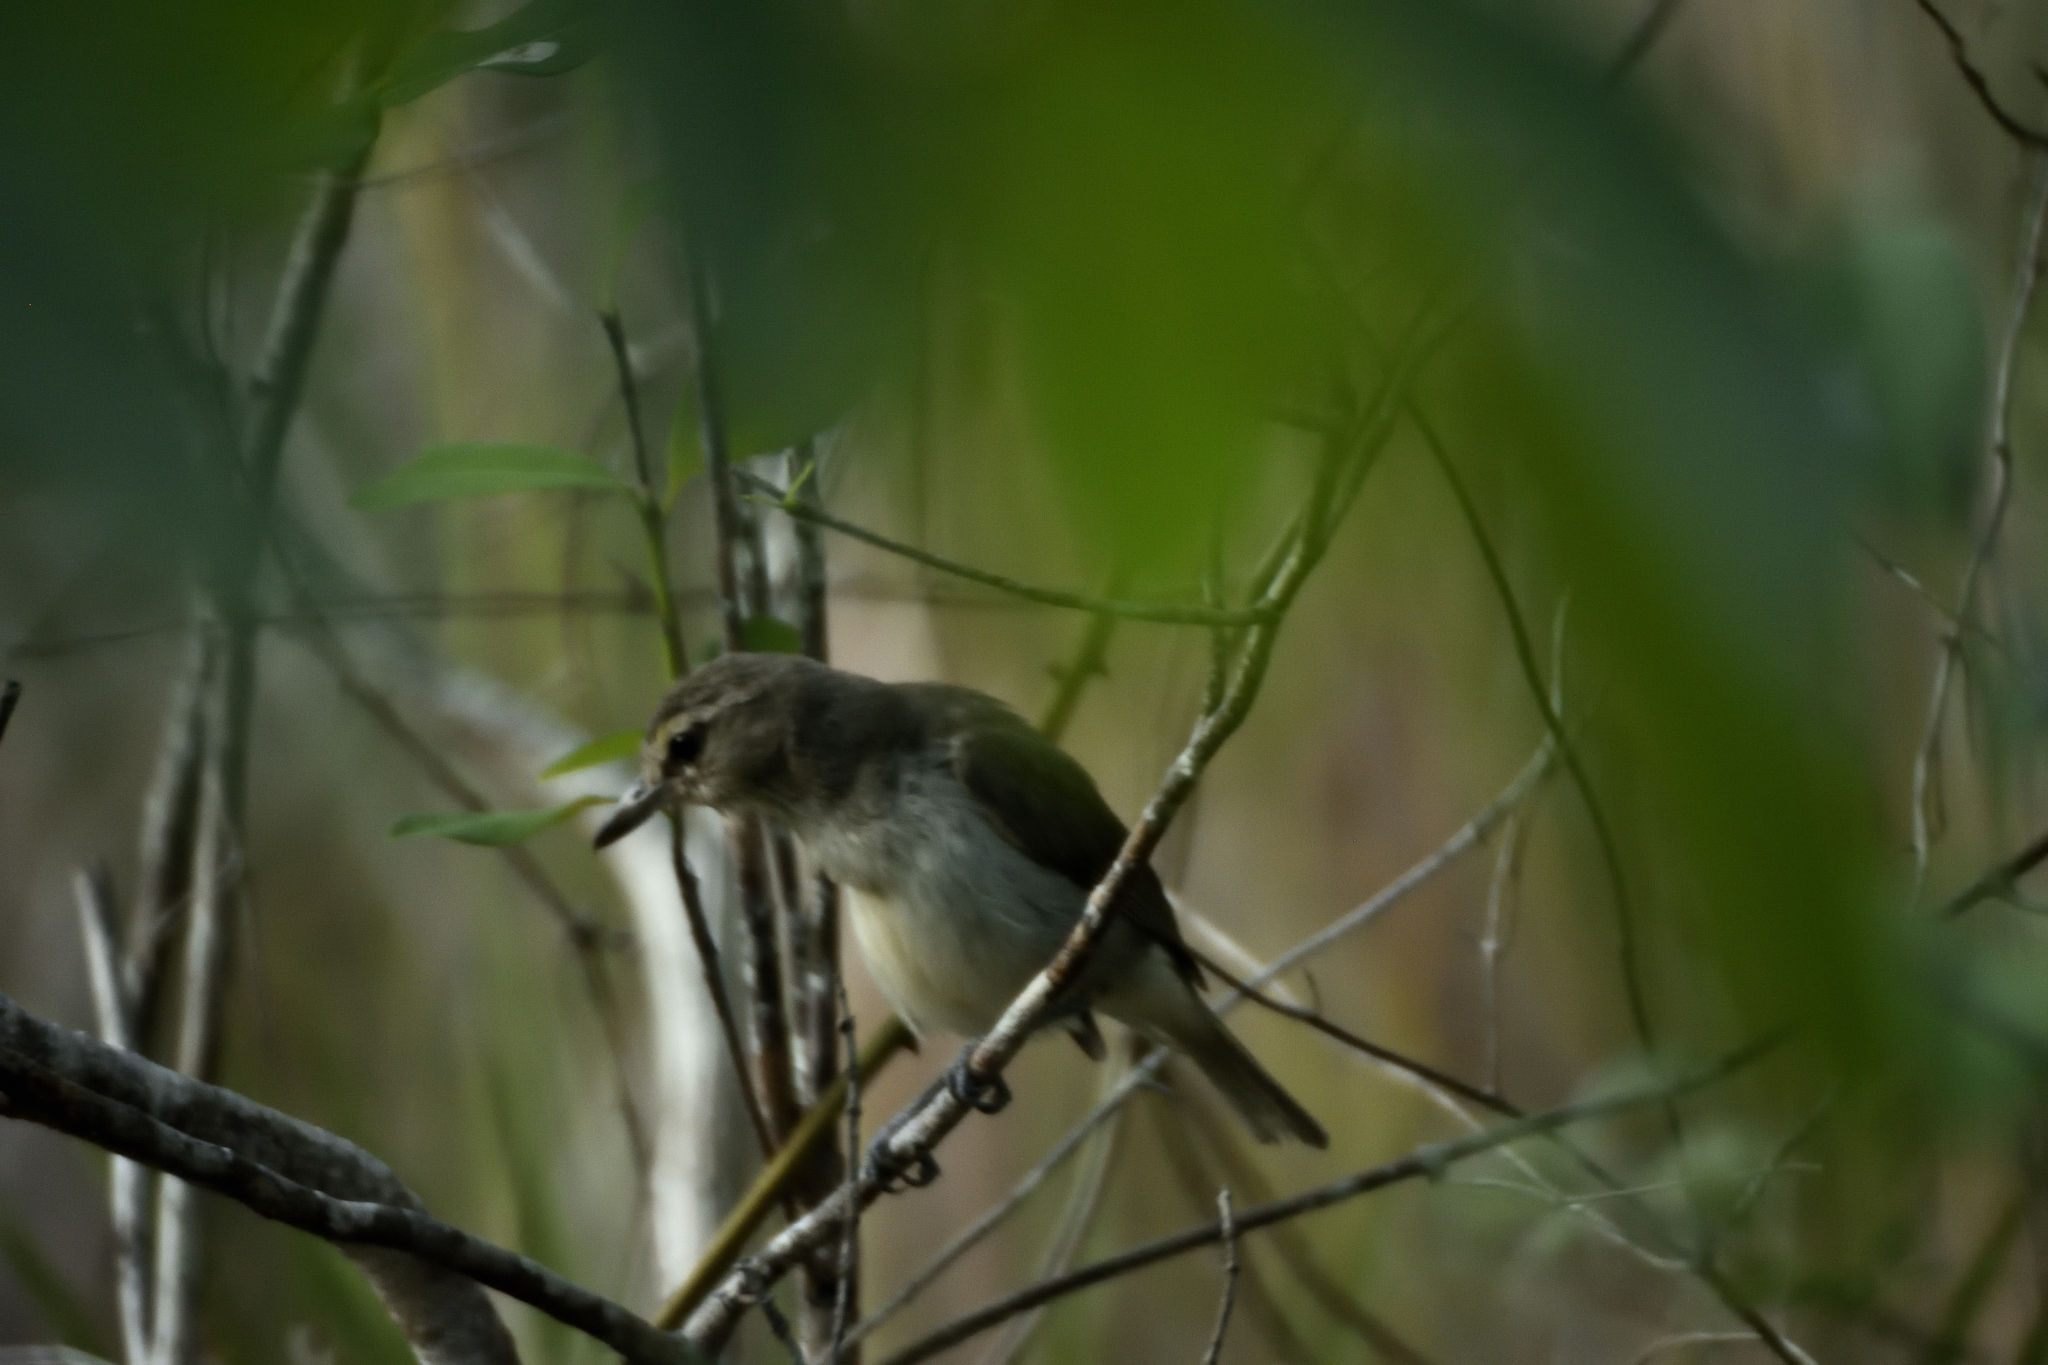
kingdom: Animalia
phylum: Chordata
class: Aves
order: Passeriformes
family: Vireonidae
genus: Vireo
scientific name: Vireo magister
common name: Yucatan vireo
